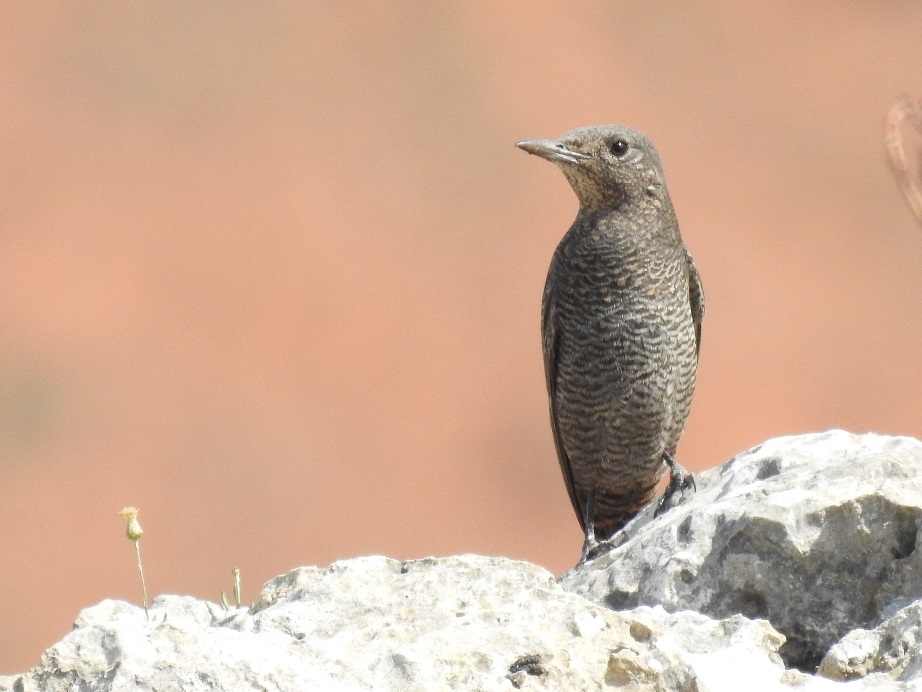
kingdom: Animalia
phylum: Chordata
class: Aves
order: Passeriformes
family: Muscicapidae
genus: Monticola
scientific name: Monticola solitarius
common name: Blue rock thrush
